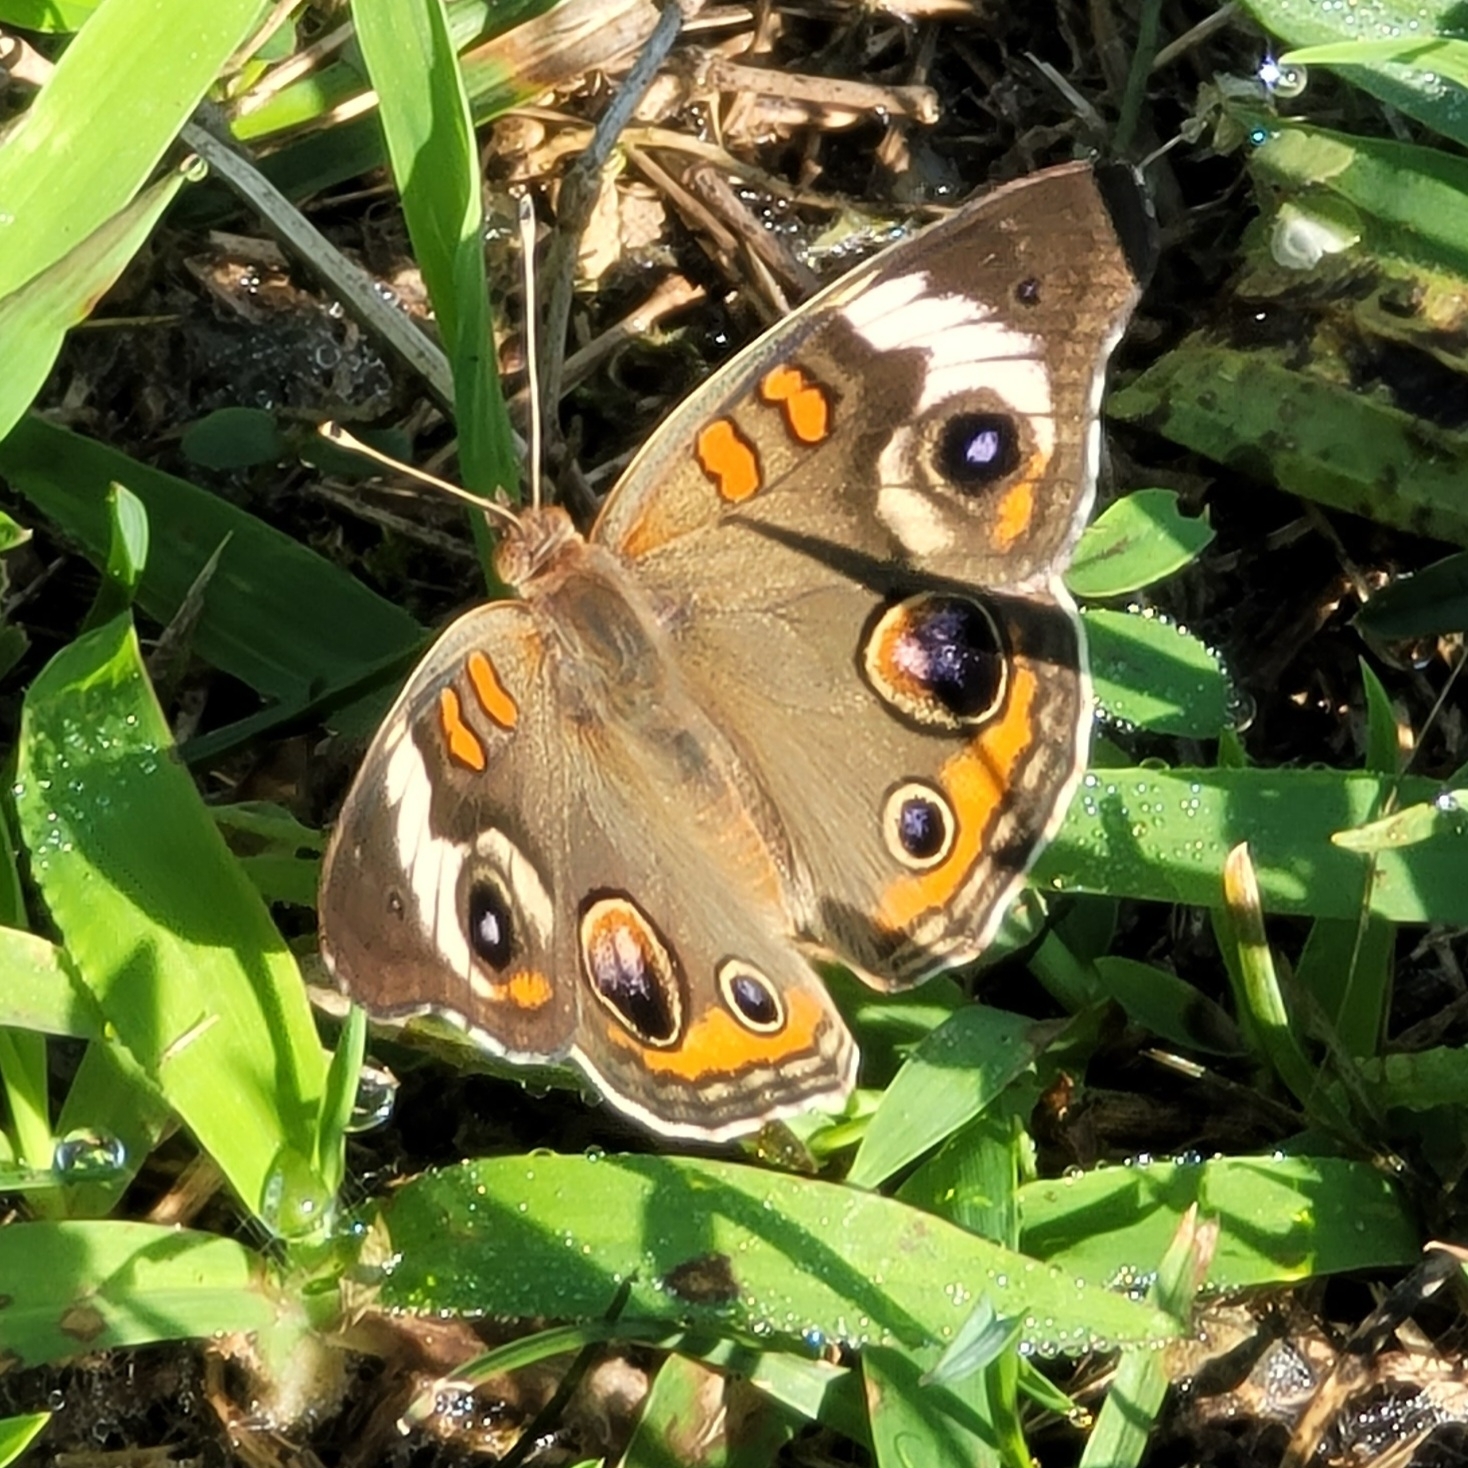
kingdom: Animalia
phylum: Arthropoda
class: Insecta
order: Lepidoptera
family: Nymphalidae
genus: Junonia
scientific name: Junonia coenia
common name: Common buckeye
